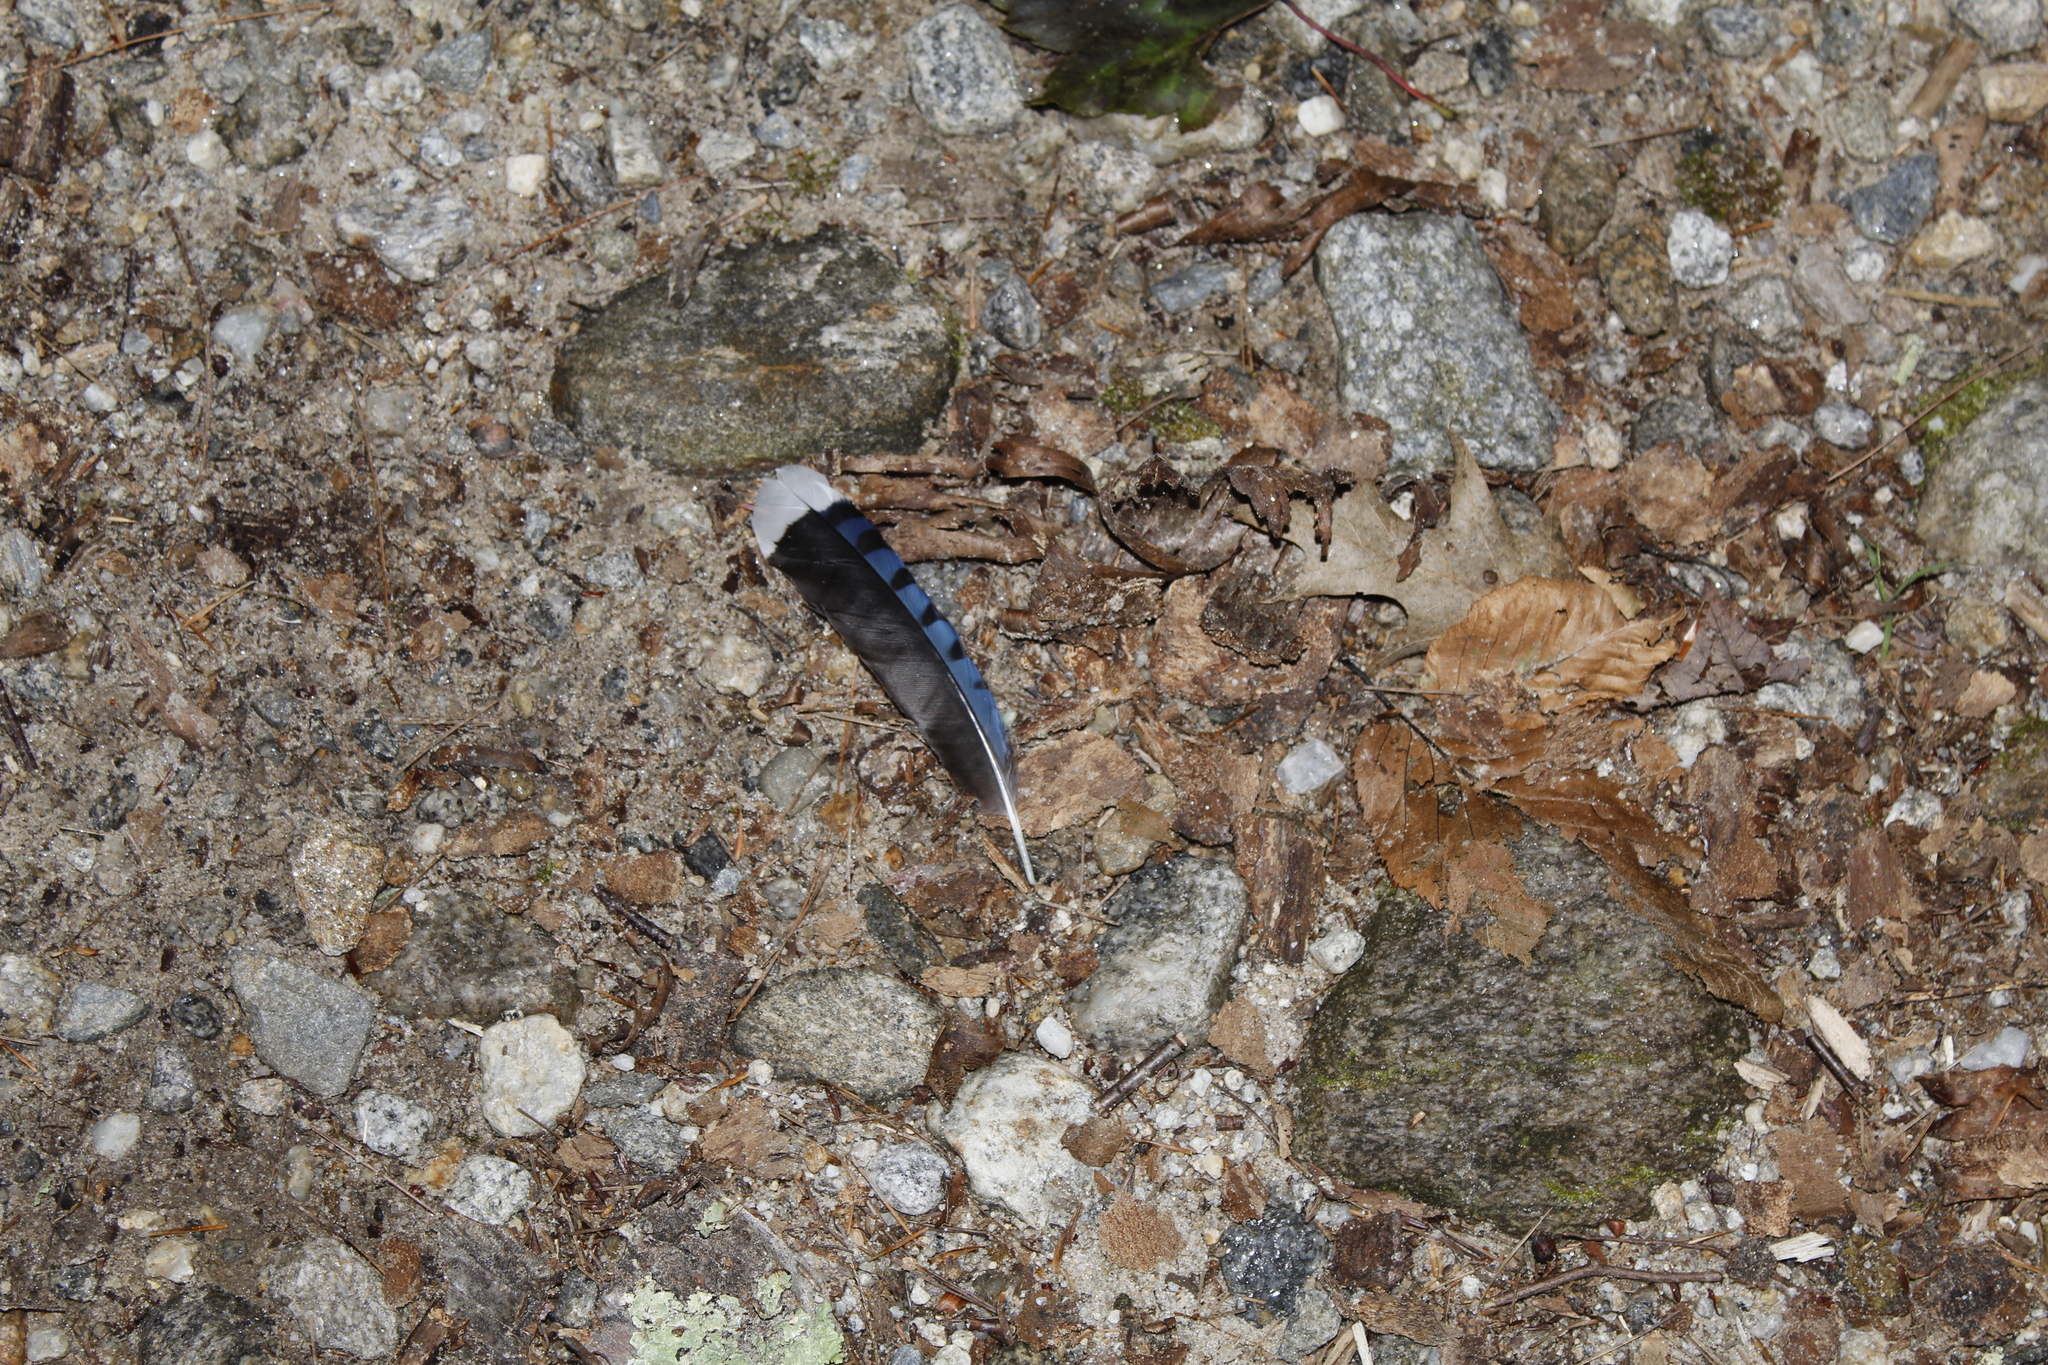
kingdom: Animalia
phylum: Chordata
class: Aves
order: Passeriformes
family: Corvidae
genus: Cyanocitta
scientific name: Cyanocitta cristata
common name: Blue jay
